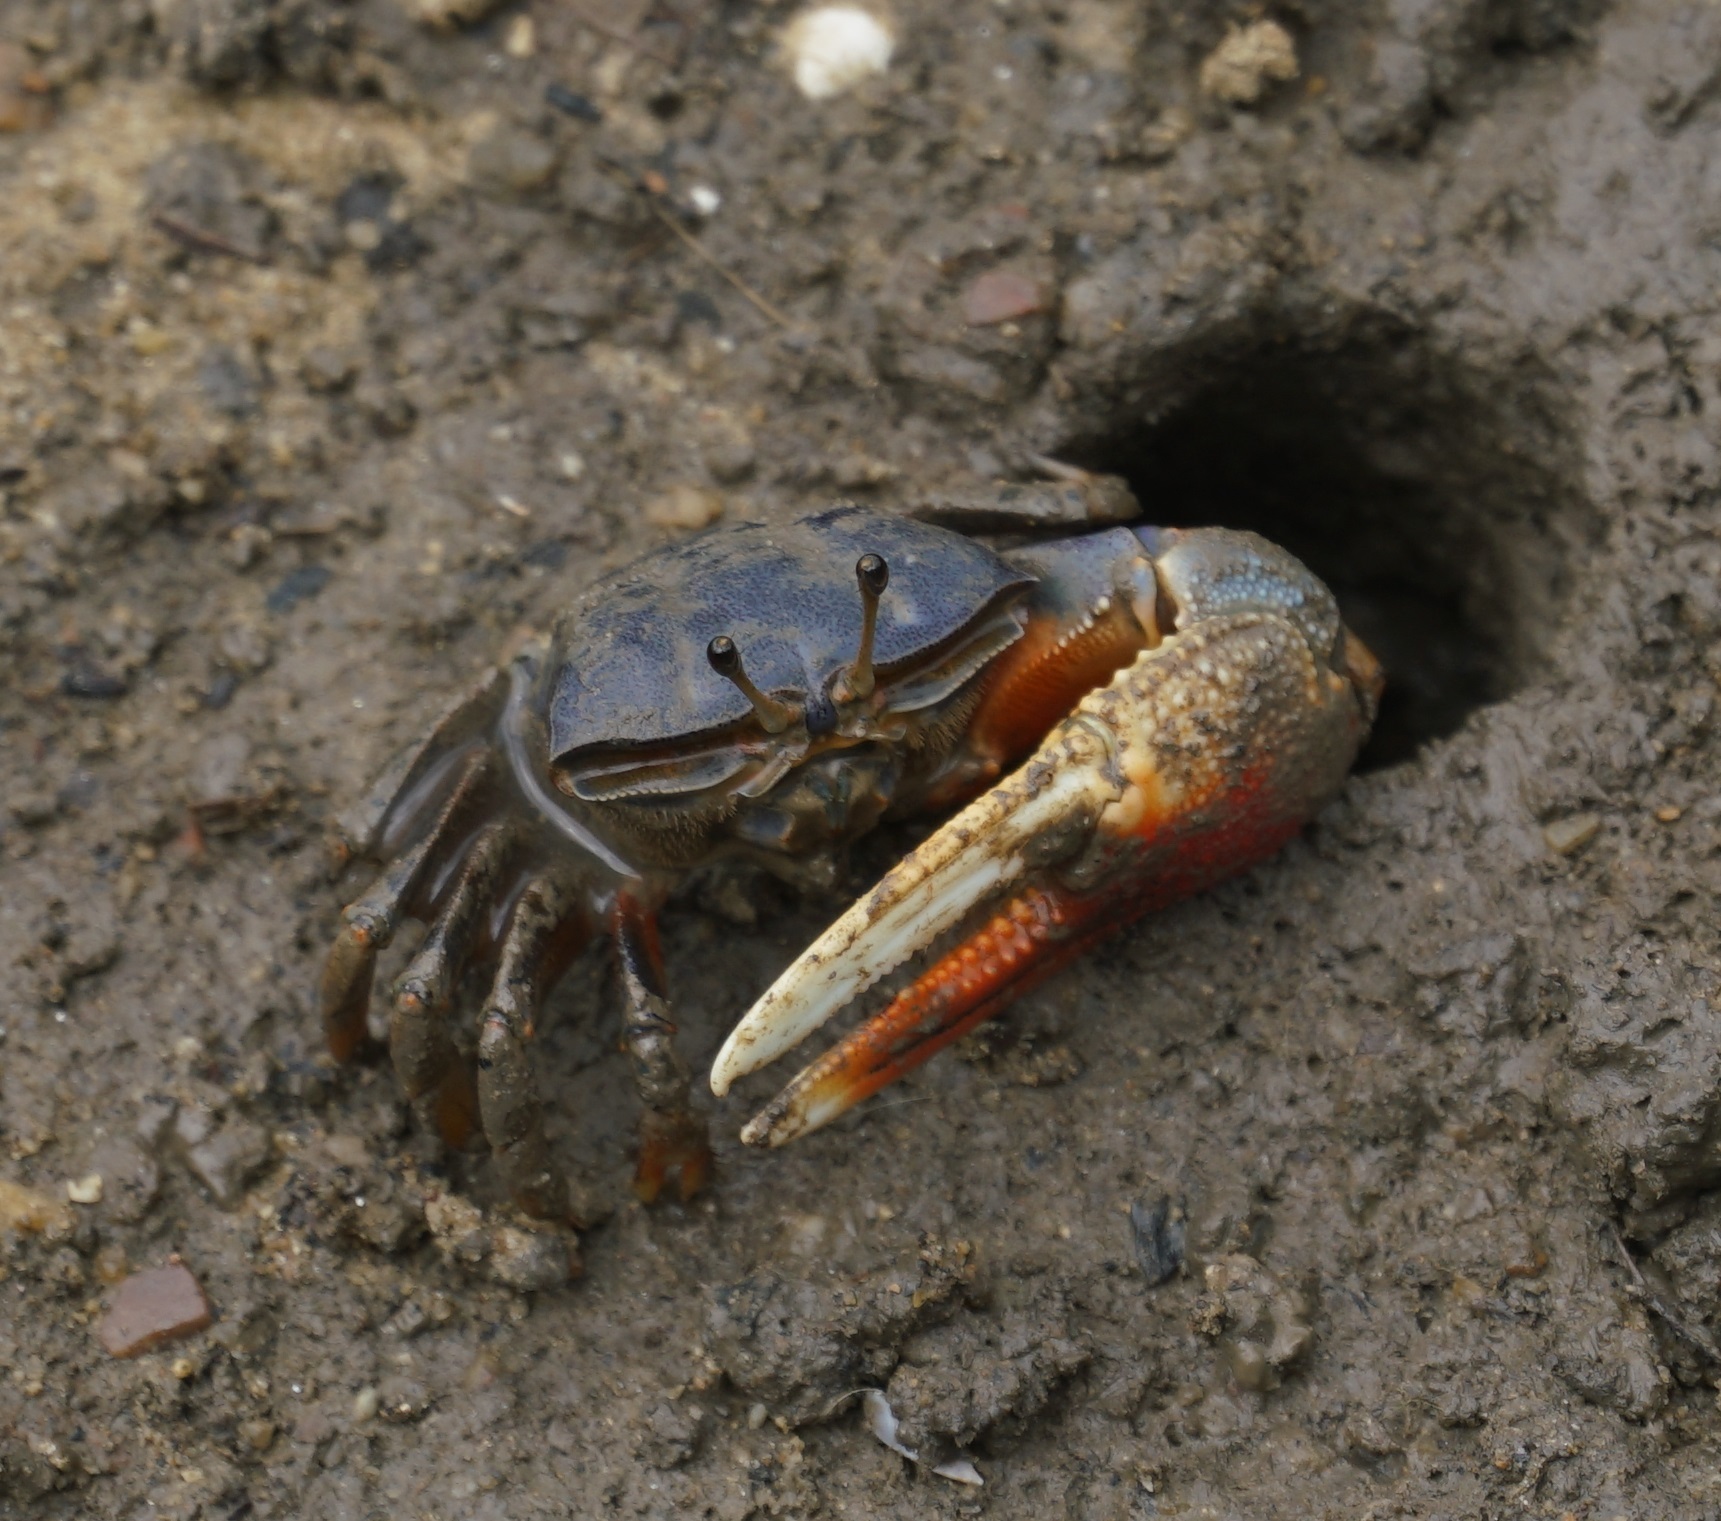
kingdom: Animalia
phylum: Arthropoda
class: Malacostraca
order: Decapoda
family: Ocypodidae
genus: Tubuca
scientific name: Tubuca dussumieri
